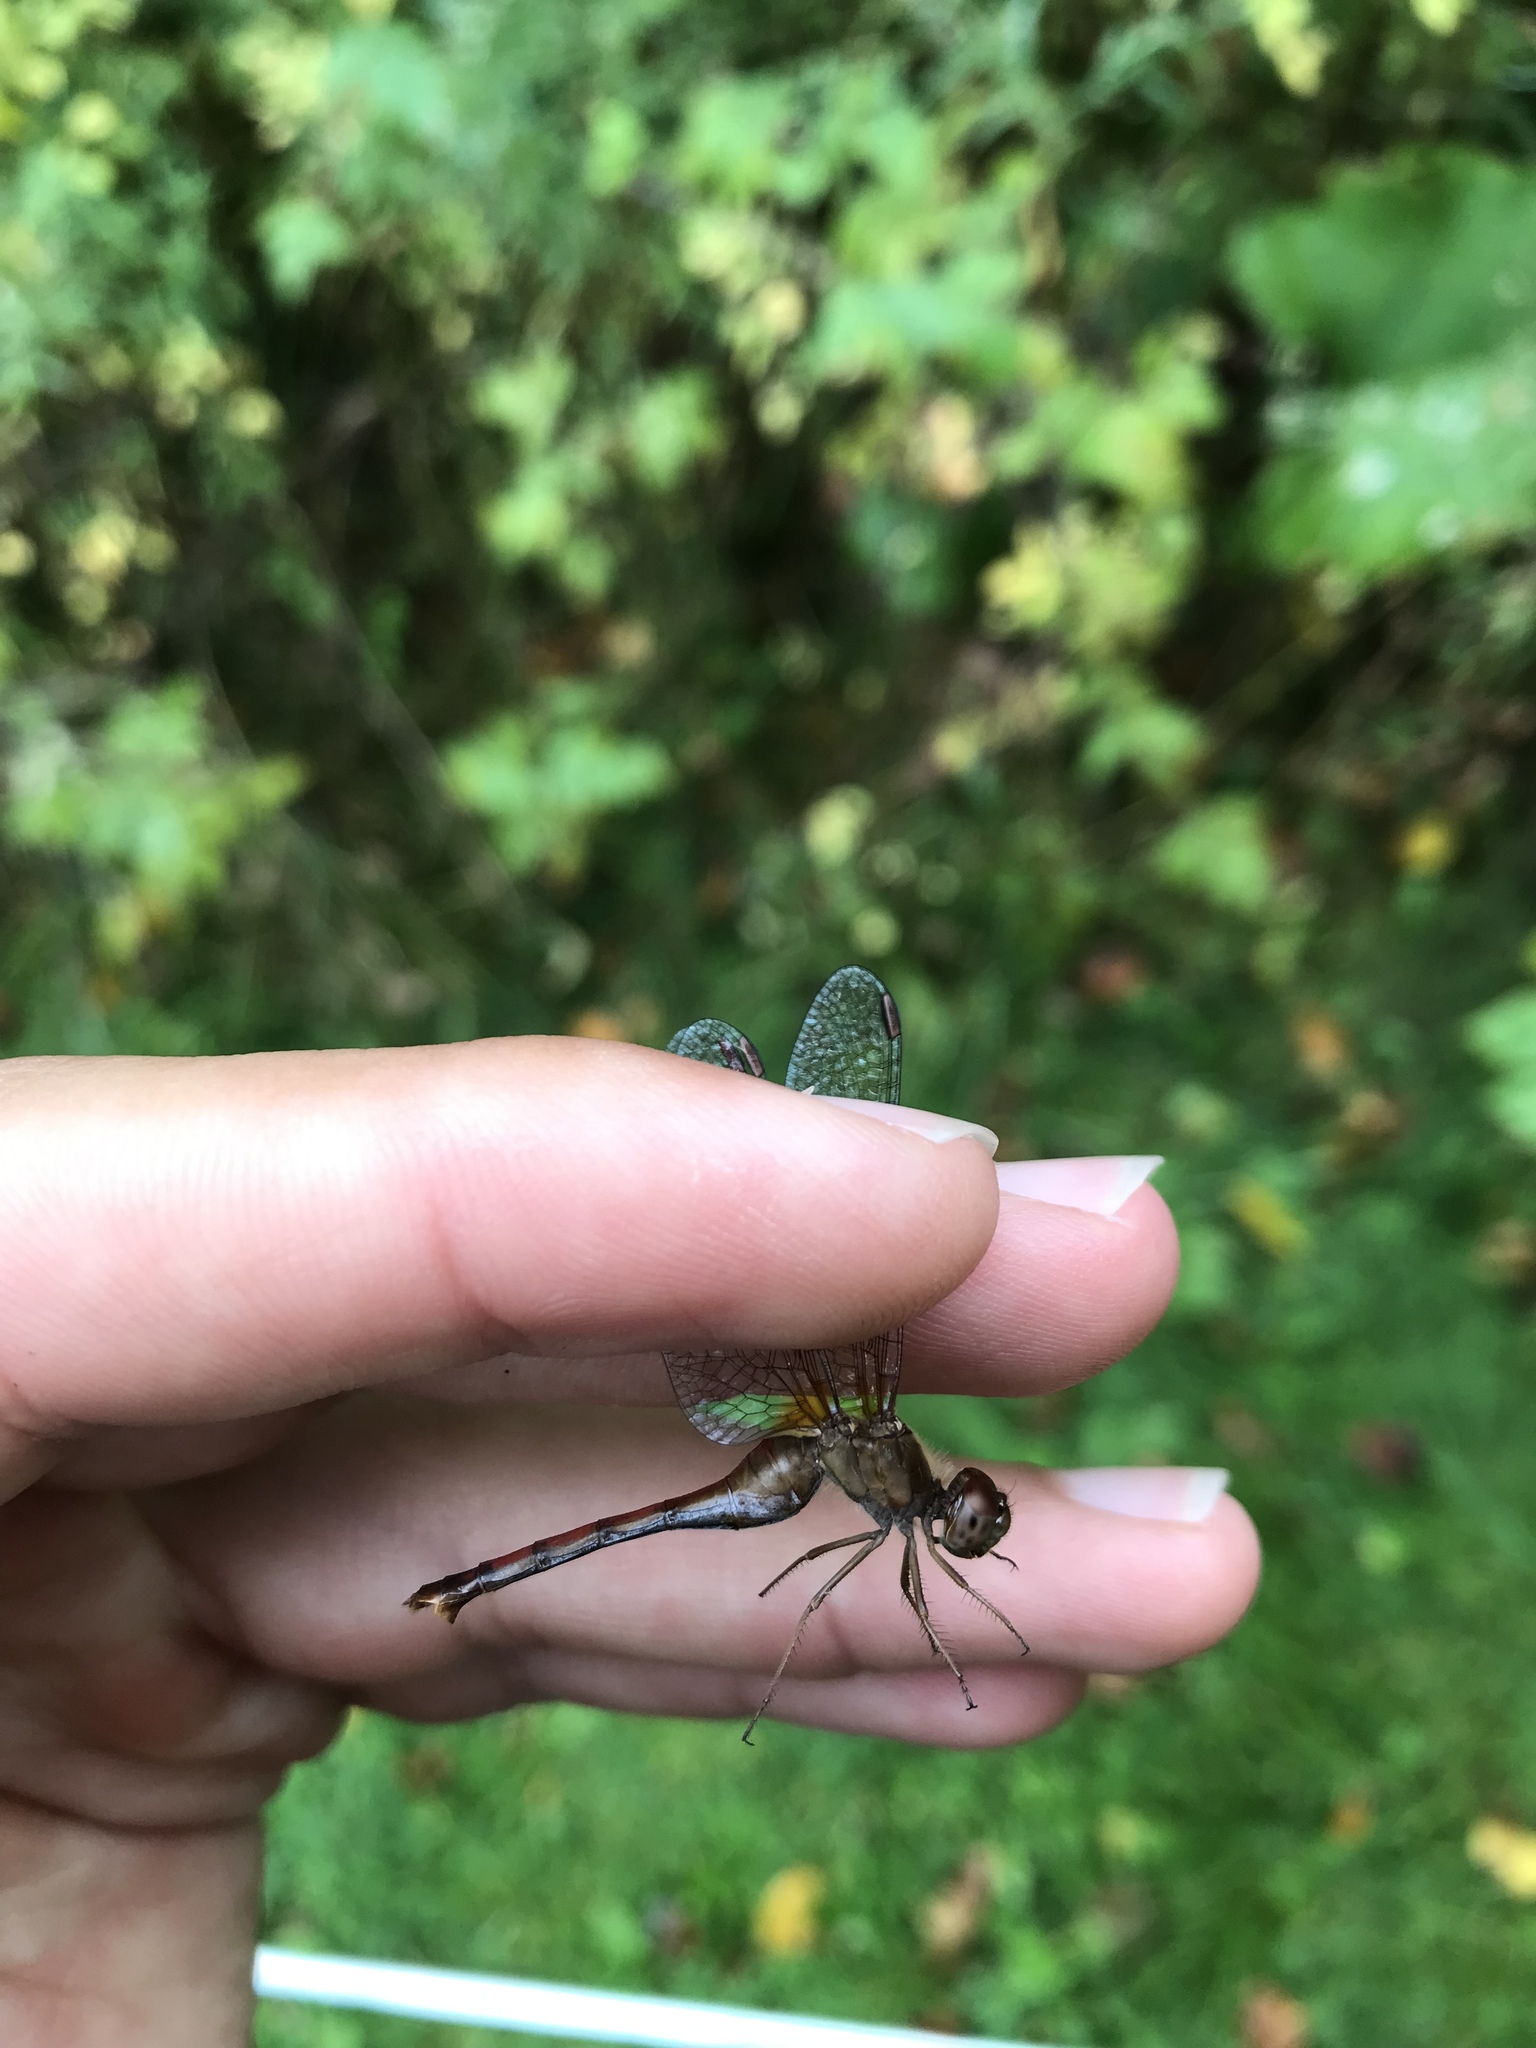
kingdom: Animalia
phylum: Arthropoda
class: Insecta
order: Odonata
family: Libellulidae
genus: Sympetrum
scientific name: Sympetrum vicinum
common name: Autumn meadowhawk
